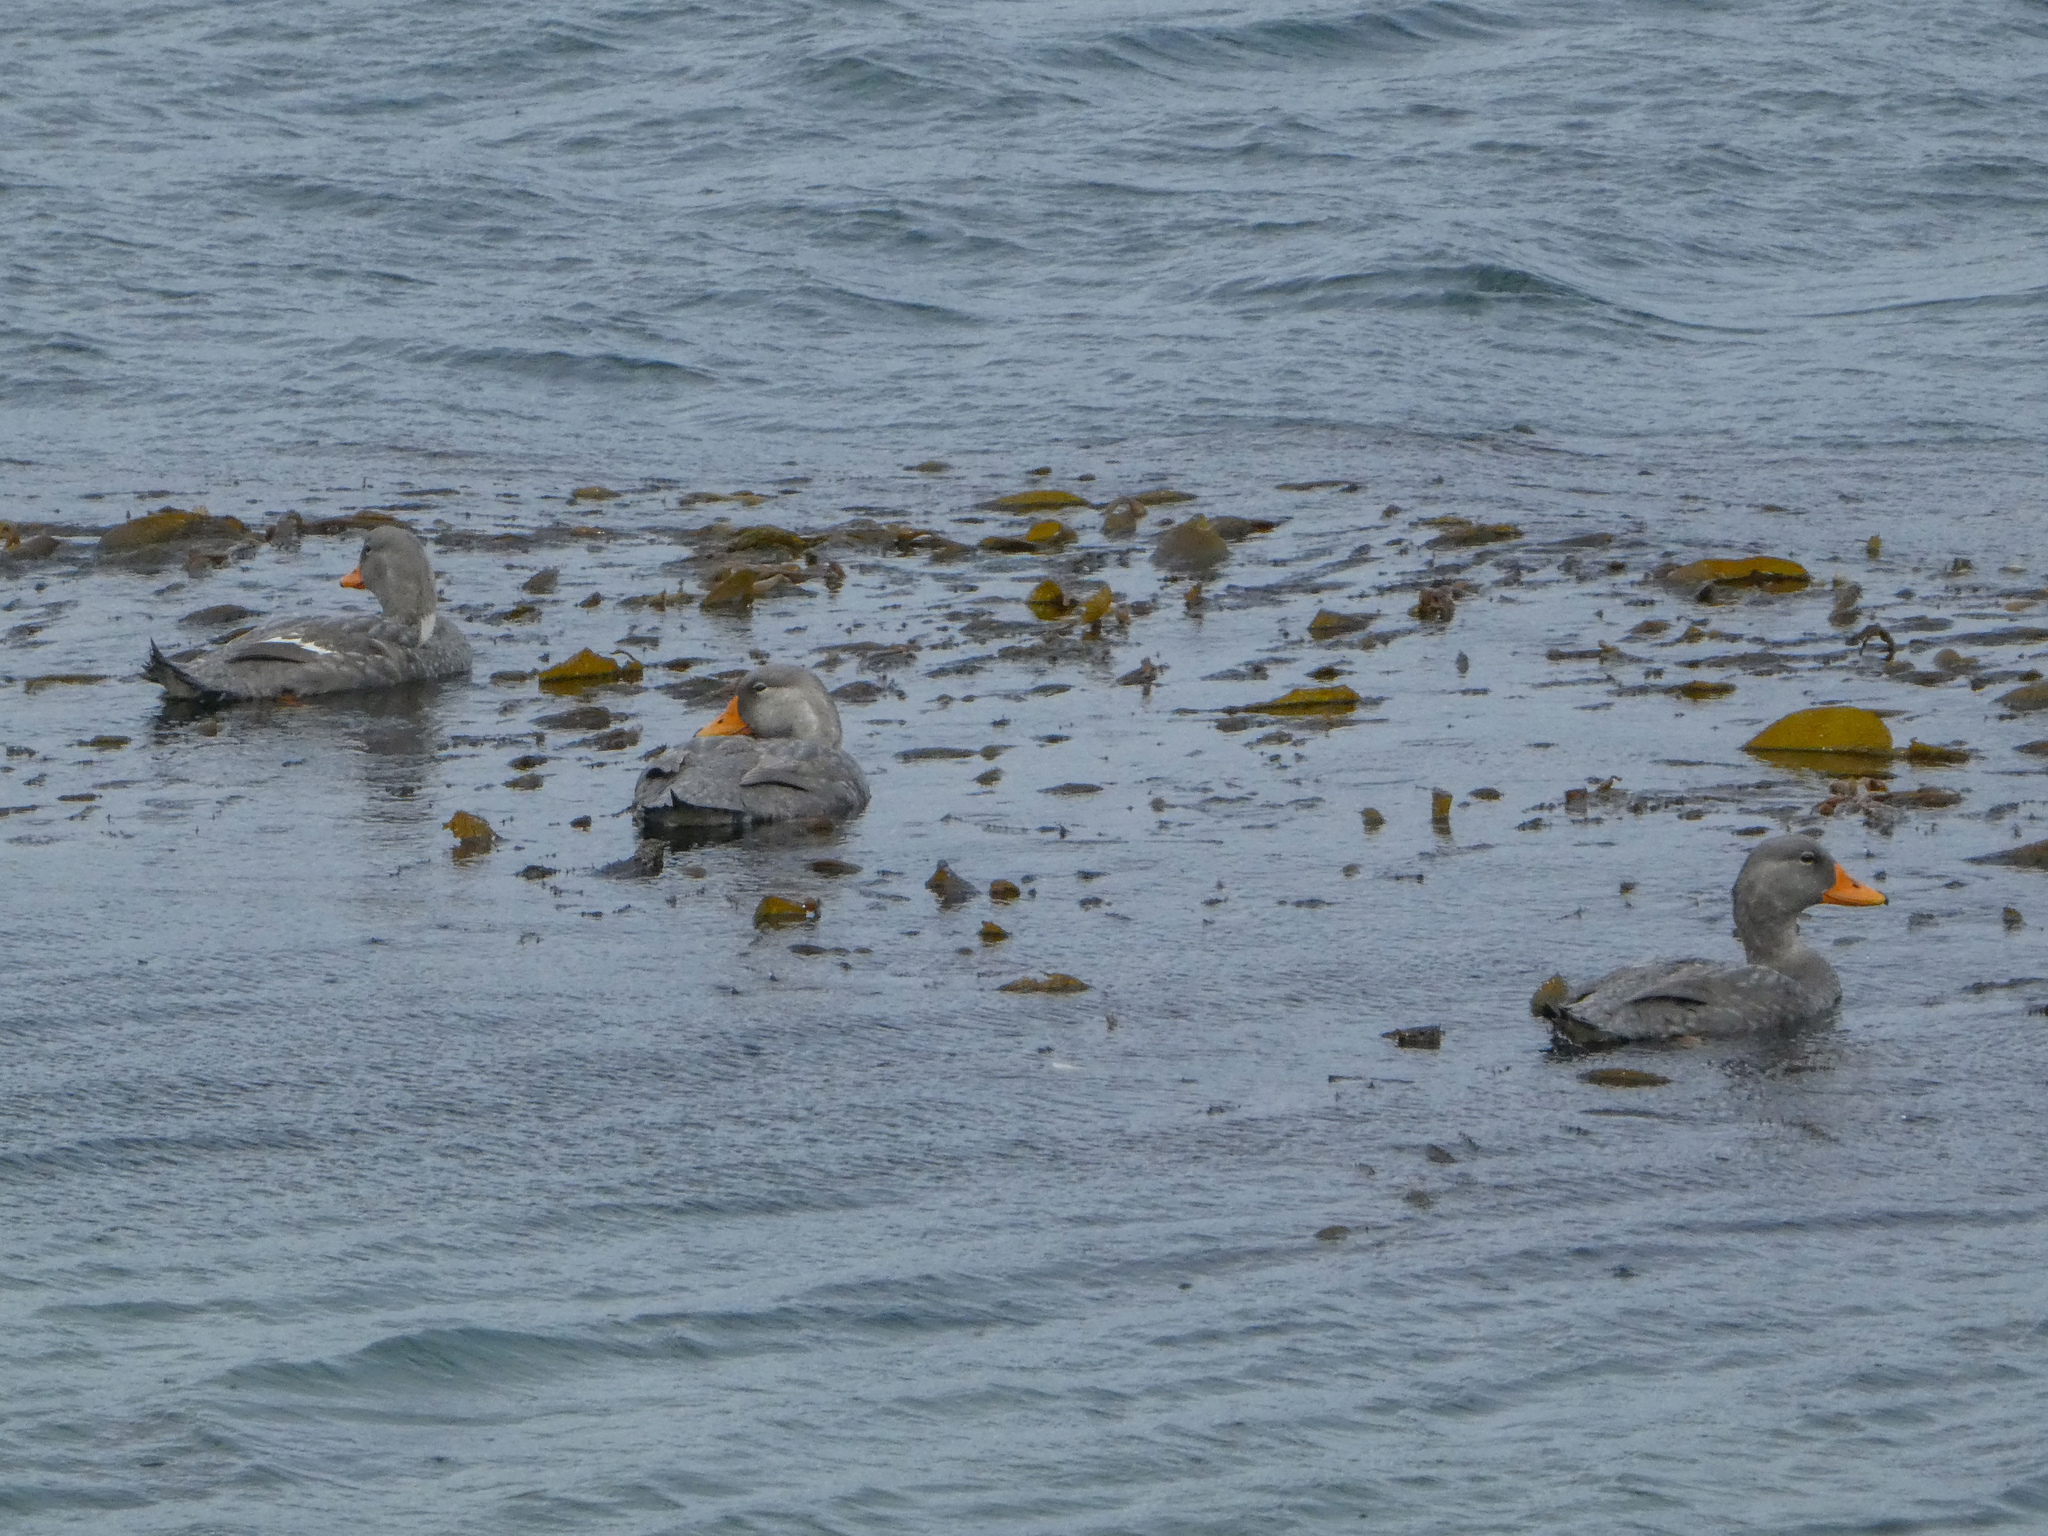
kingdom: Animalia
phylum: Chordata
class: Aves
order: Anseriformes
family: Anatidae
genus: Tachyeres
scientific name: Tachyeres pteneres
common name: Fuegian steamer duck
